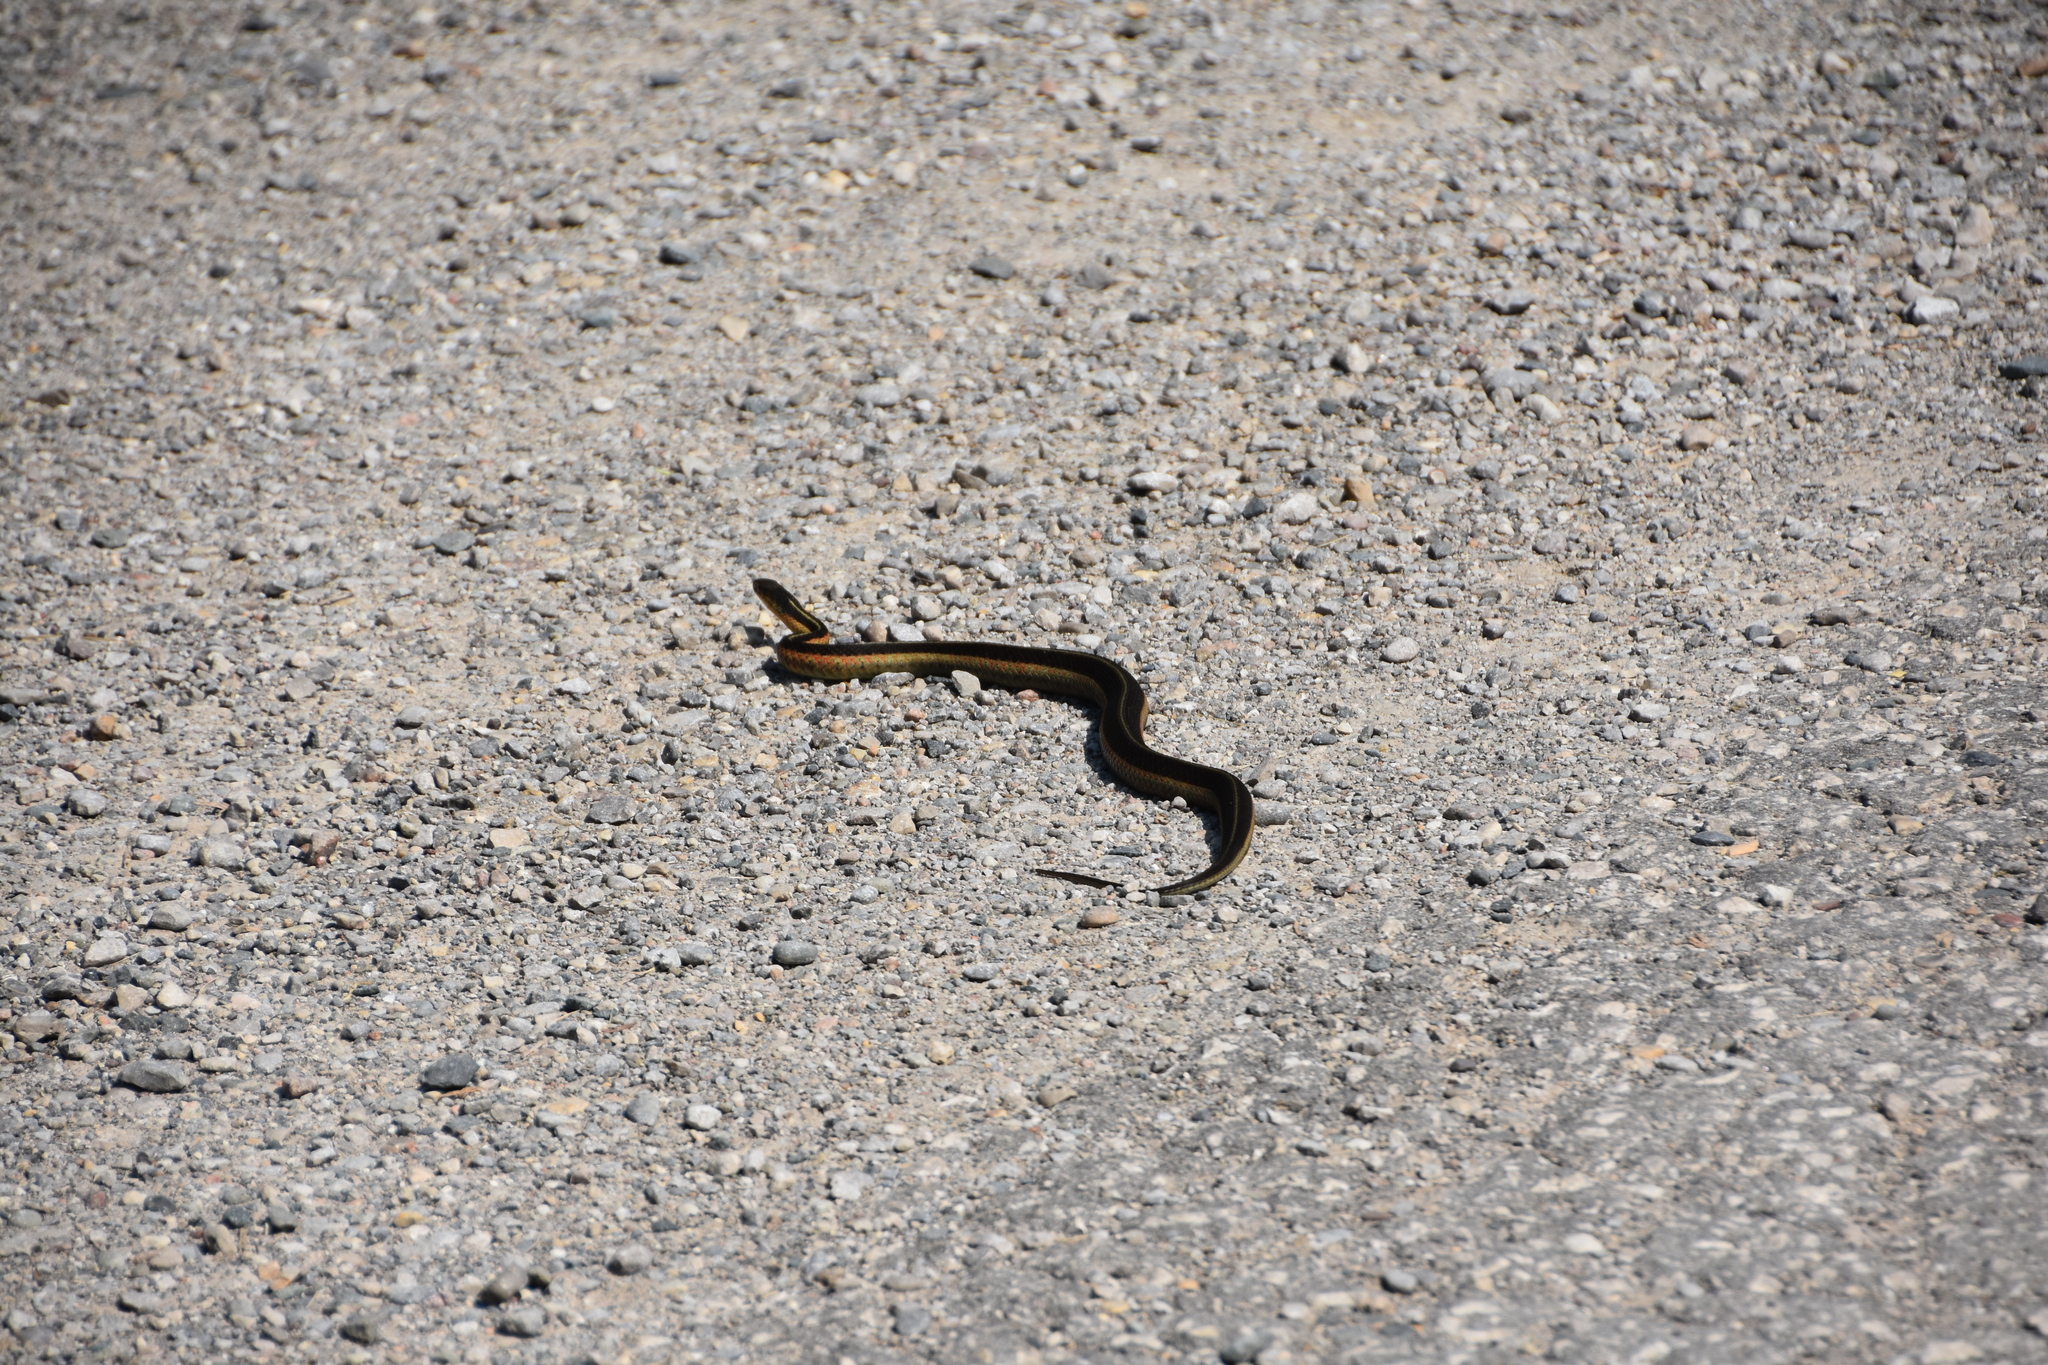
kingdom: Animalia
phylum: Chordata
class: Squamata
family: Colubridae
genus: Thamnophis
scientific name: Thamnophis sirtalis
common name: Common garter snake
